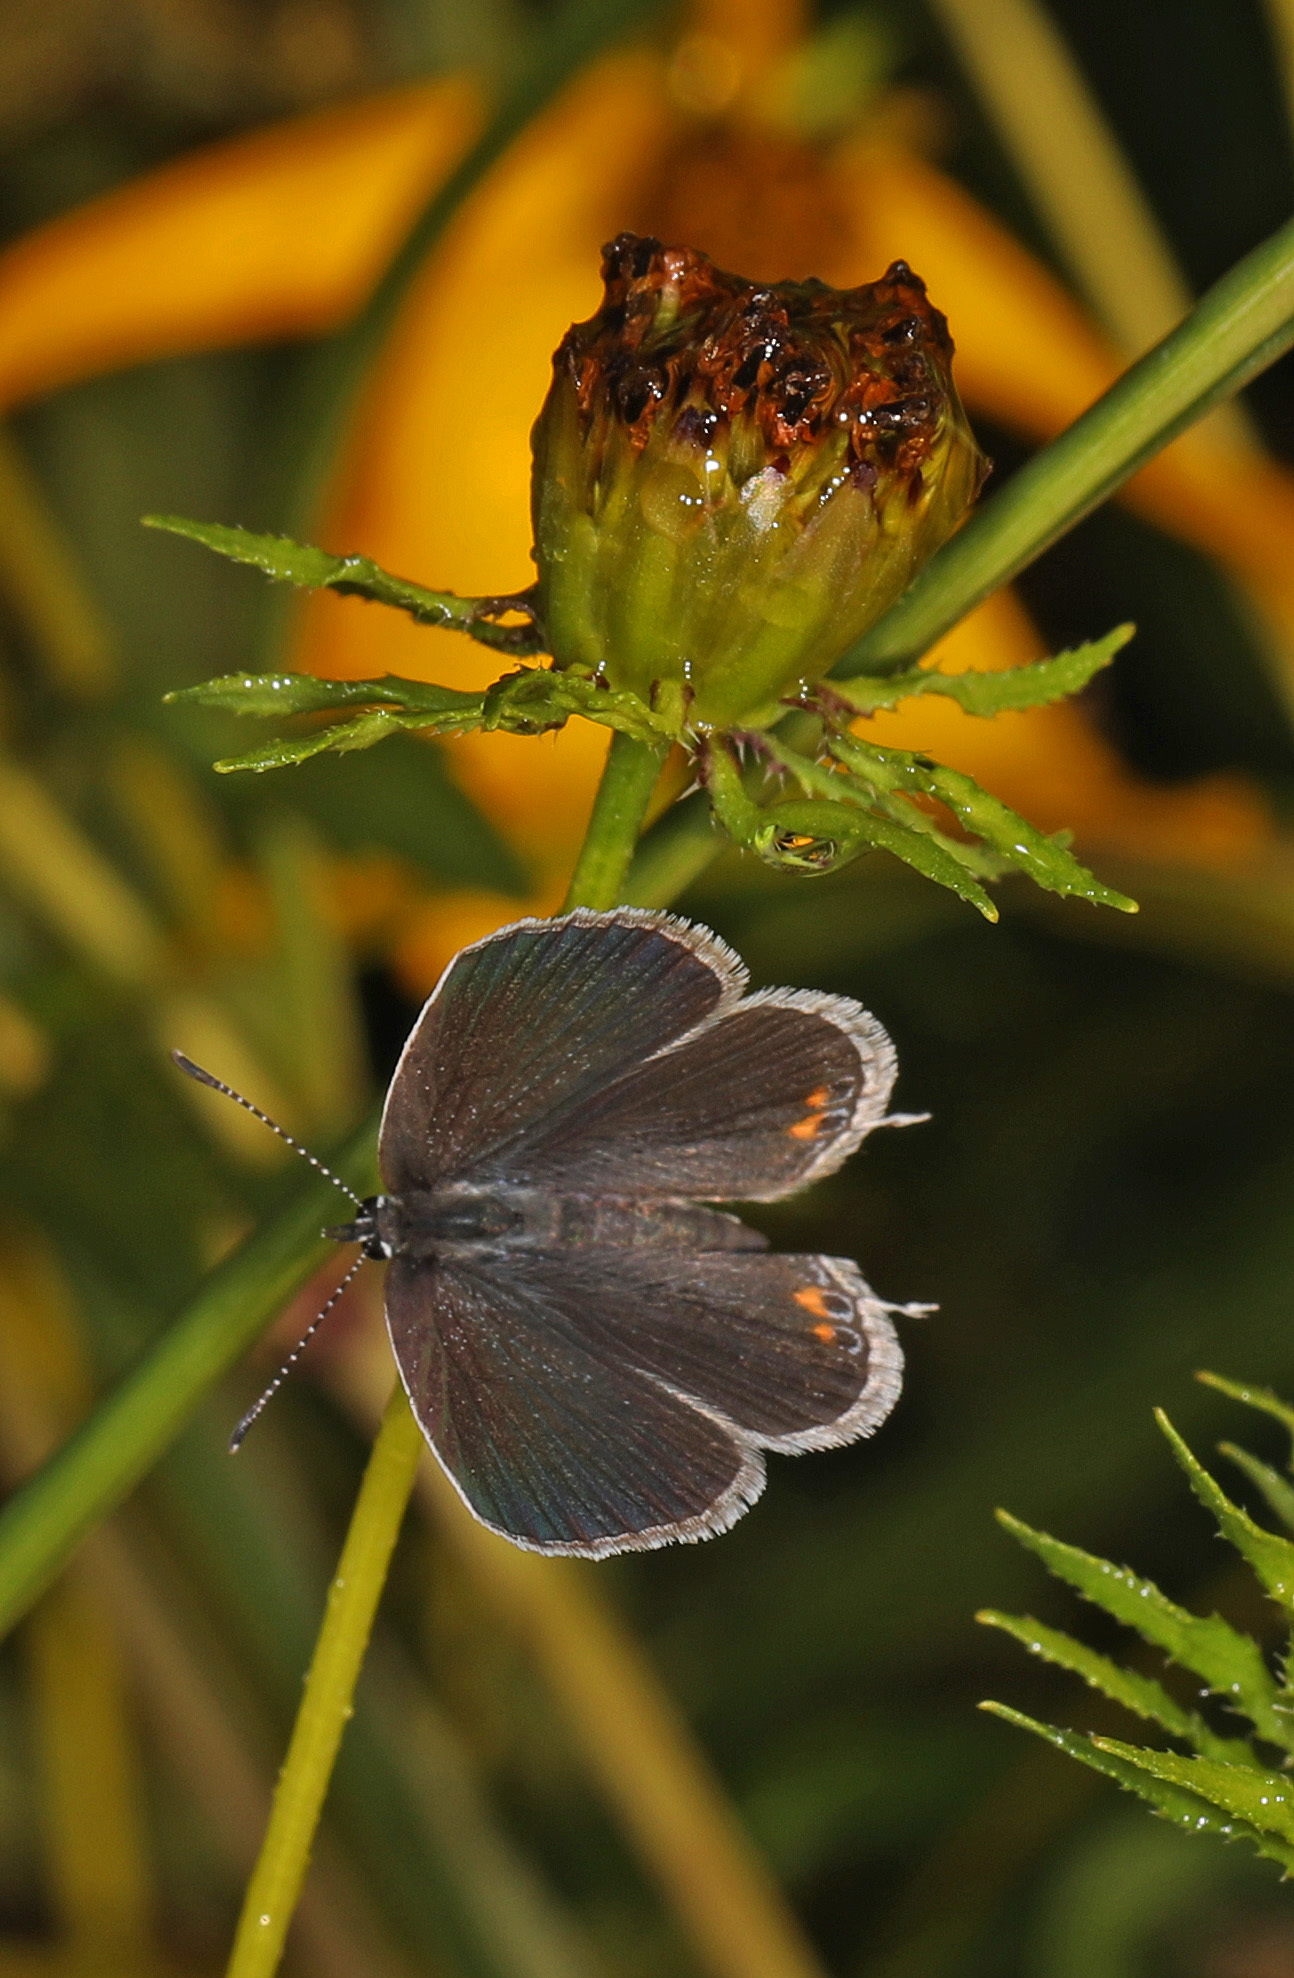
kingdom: Animalia
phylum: Arthropoda
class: Insecta
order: Lepidoptera
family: Lycaenidae
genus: Elkalyce
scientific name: Elkalyce comyntas
